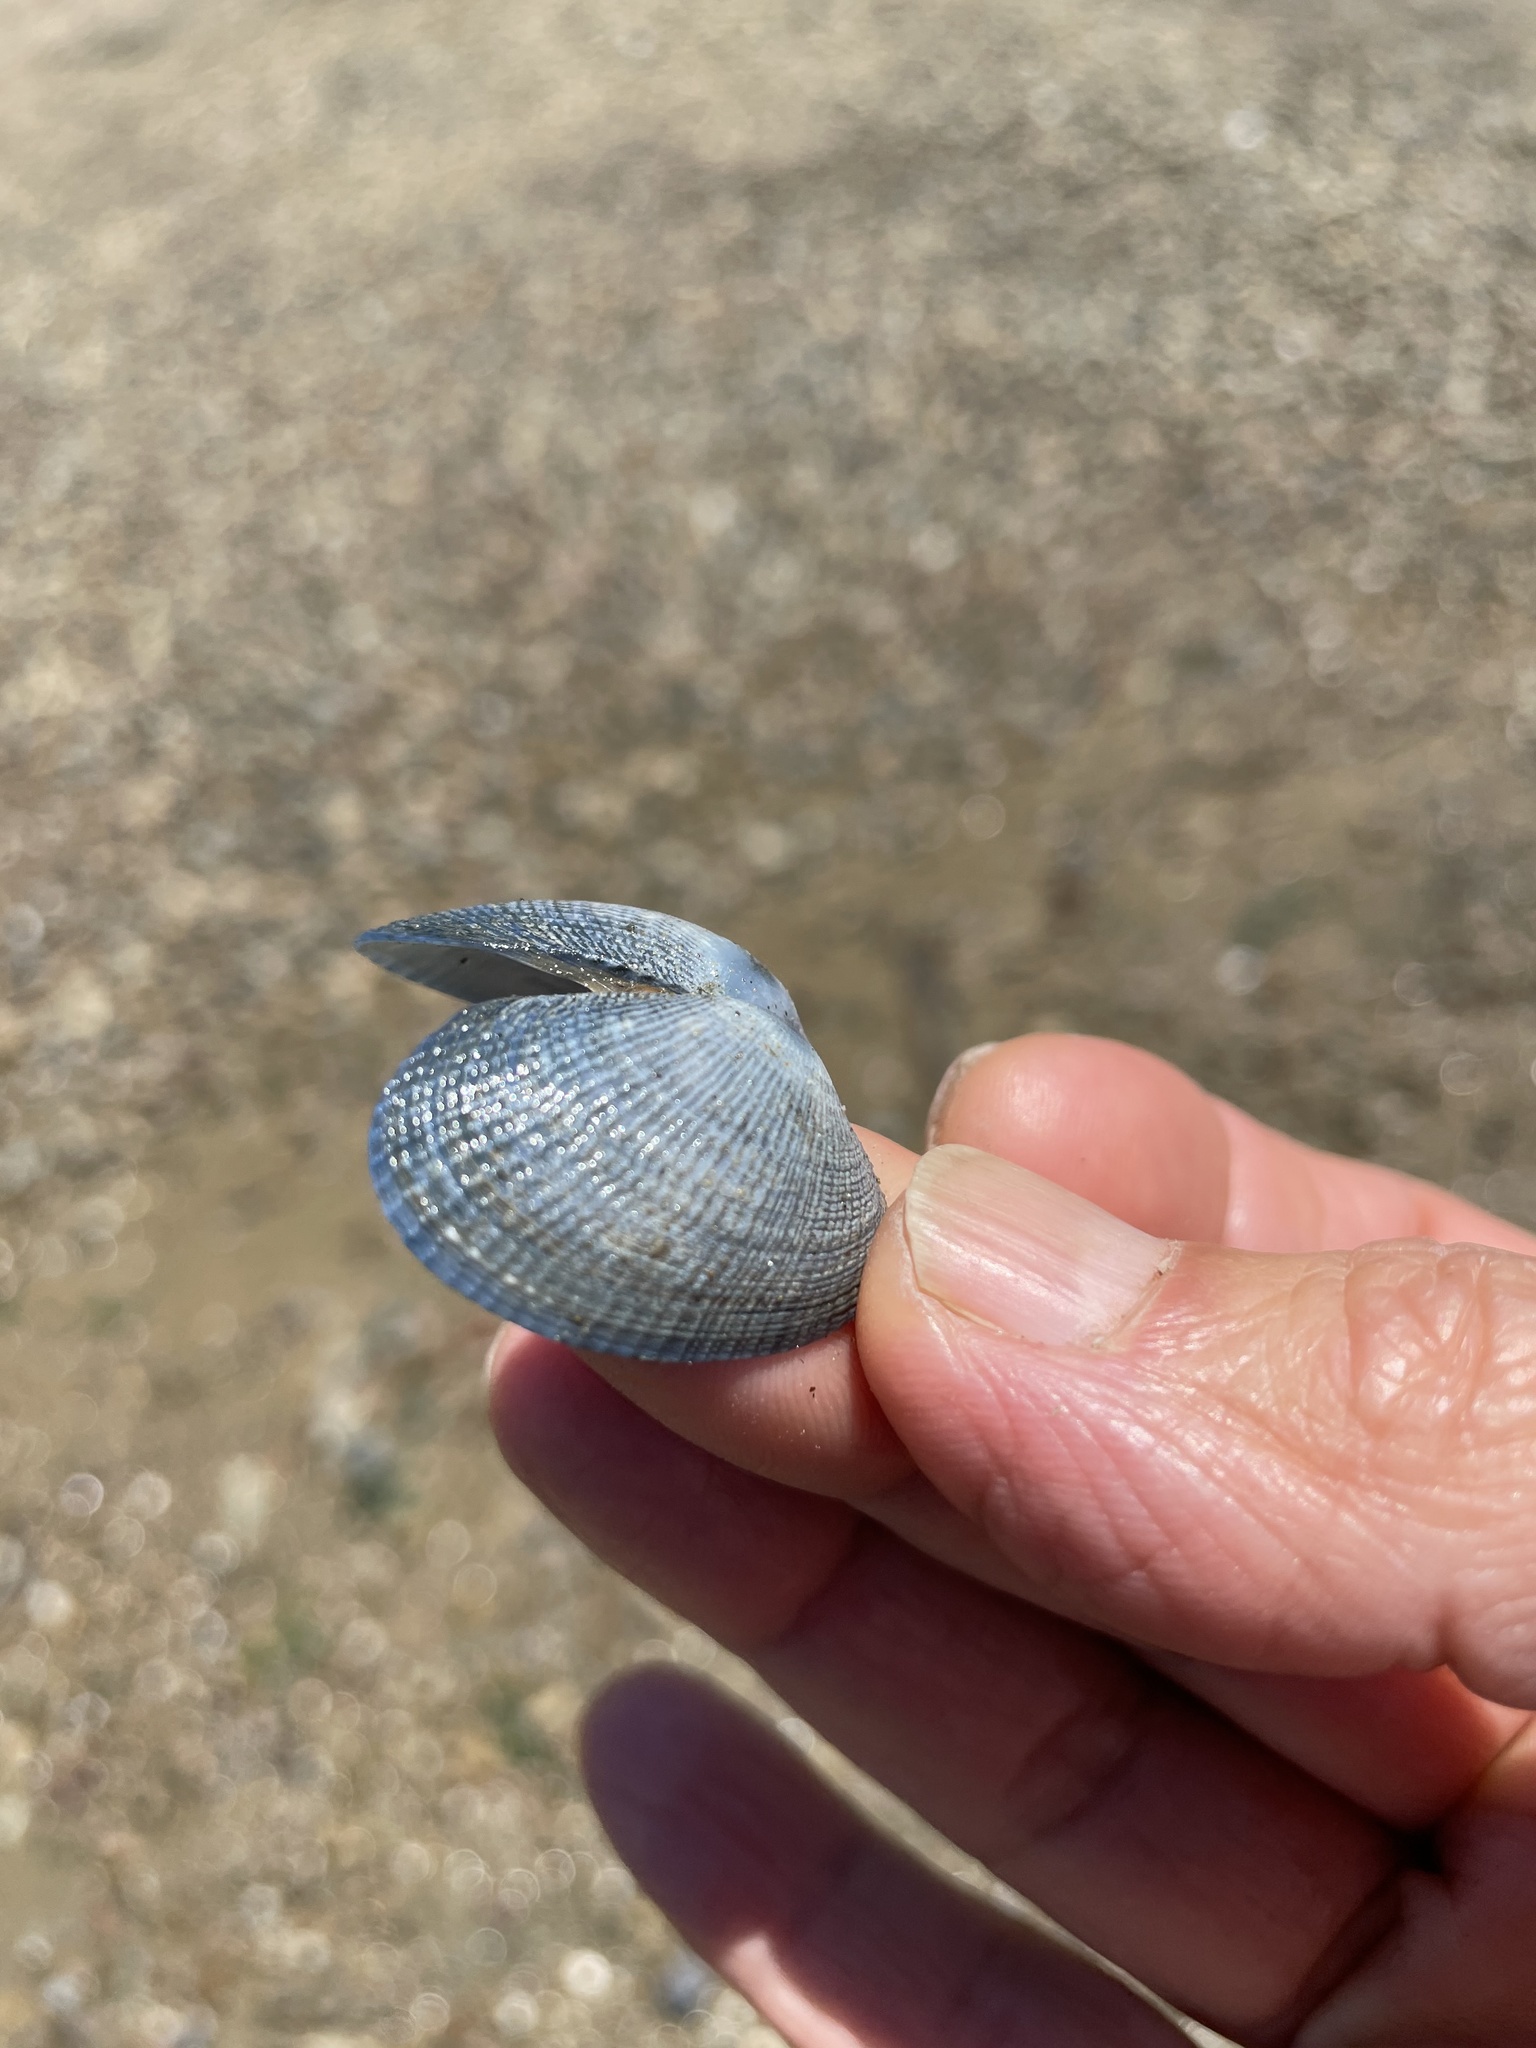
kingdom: Animalia
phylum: Mollusca
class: Bivalvia
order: Venerida
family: Veneridae
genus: Ruditapes
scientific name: Ruditapes philippinarum
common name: Manila clam
